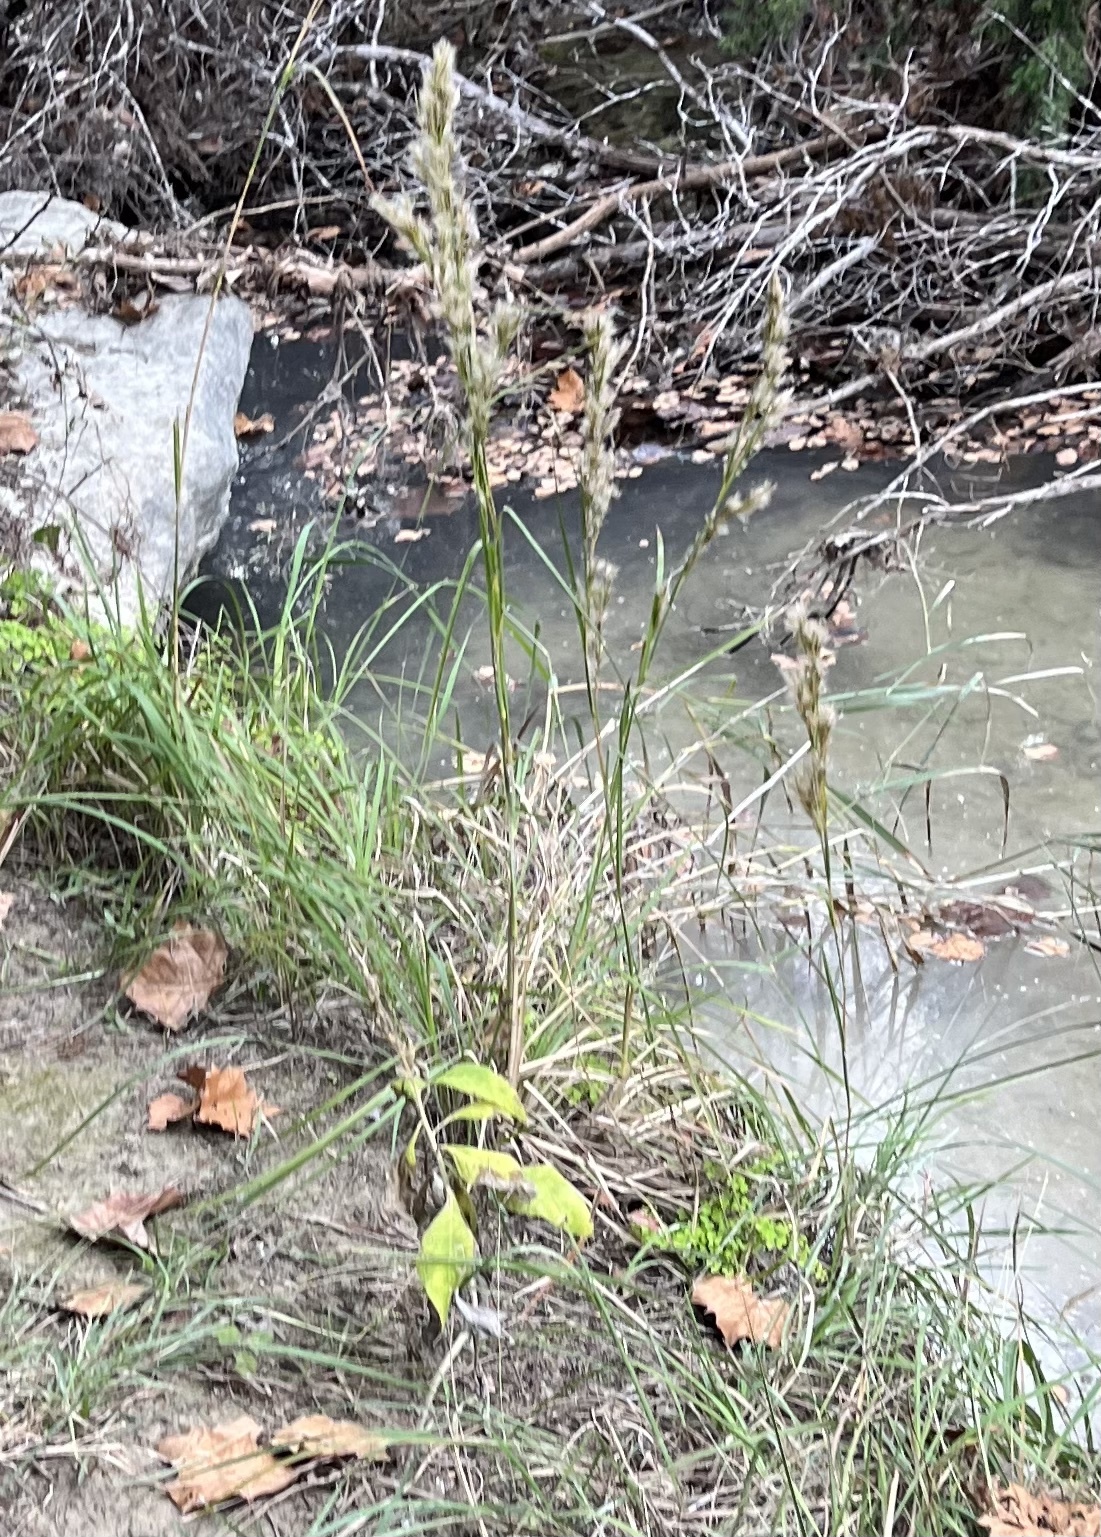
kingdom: Plantae
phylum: Tracheophyta
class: Liliopsida
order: Poales
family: Poaceae
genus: Andropogon
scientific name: Andropogon tenuispatheus
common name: Bushy bluestem
